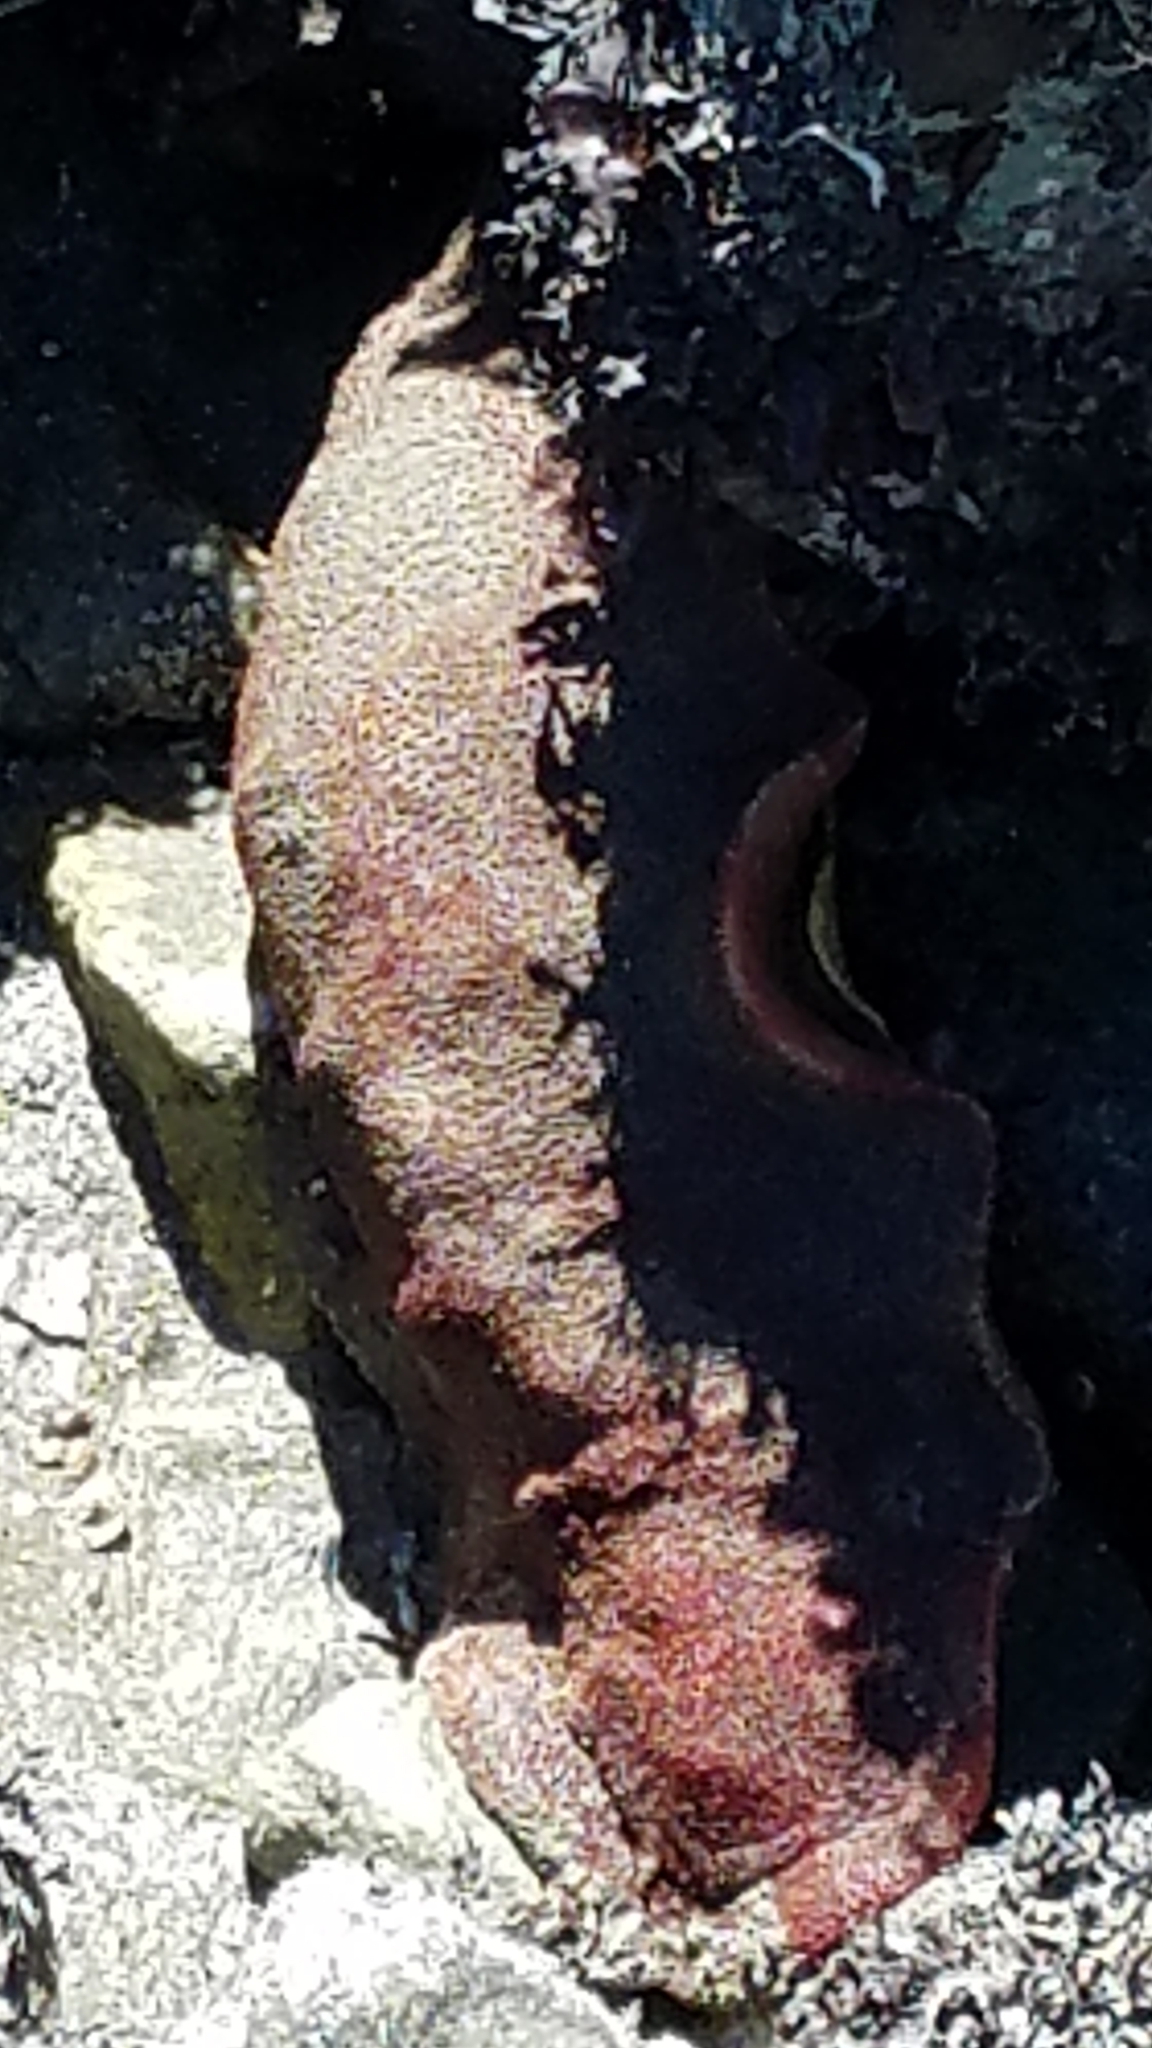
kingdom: Animalia
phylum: Mollusca
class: Polyplacophora
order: Chitonida
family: Acanthochitonidae
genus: Cryptochiton
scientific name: Cryptochiton stelleri
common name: Giant pacific chiton
